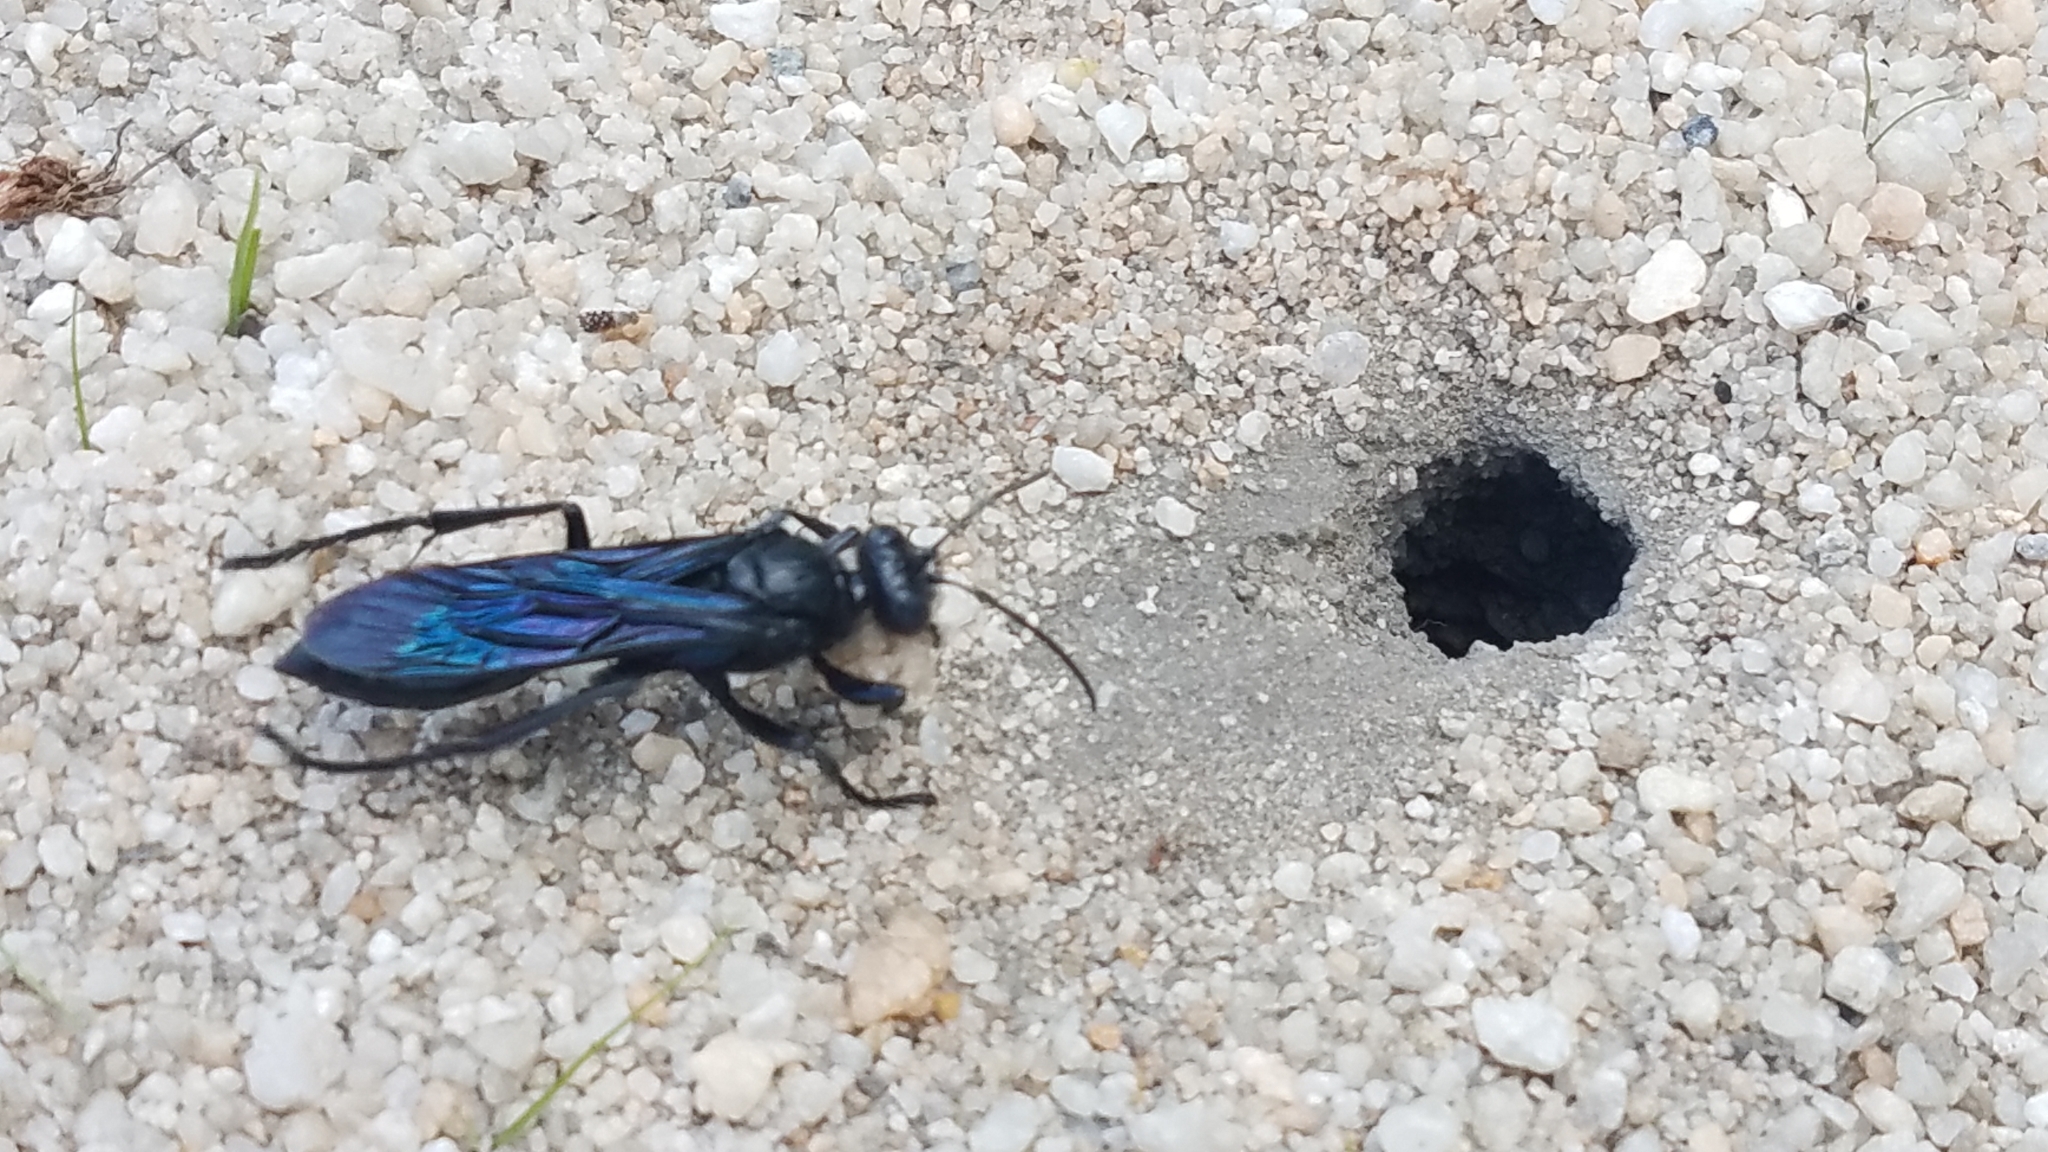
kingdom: Animalia
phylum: Arthropoda
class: Insecta
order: Hymenoptera
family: Sphecidae
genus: Sphex
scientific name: Sphex madasummae
